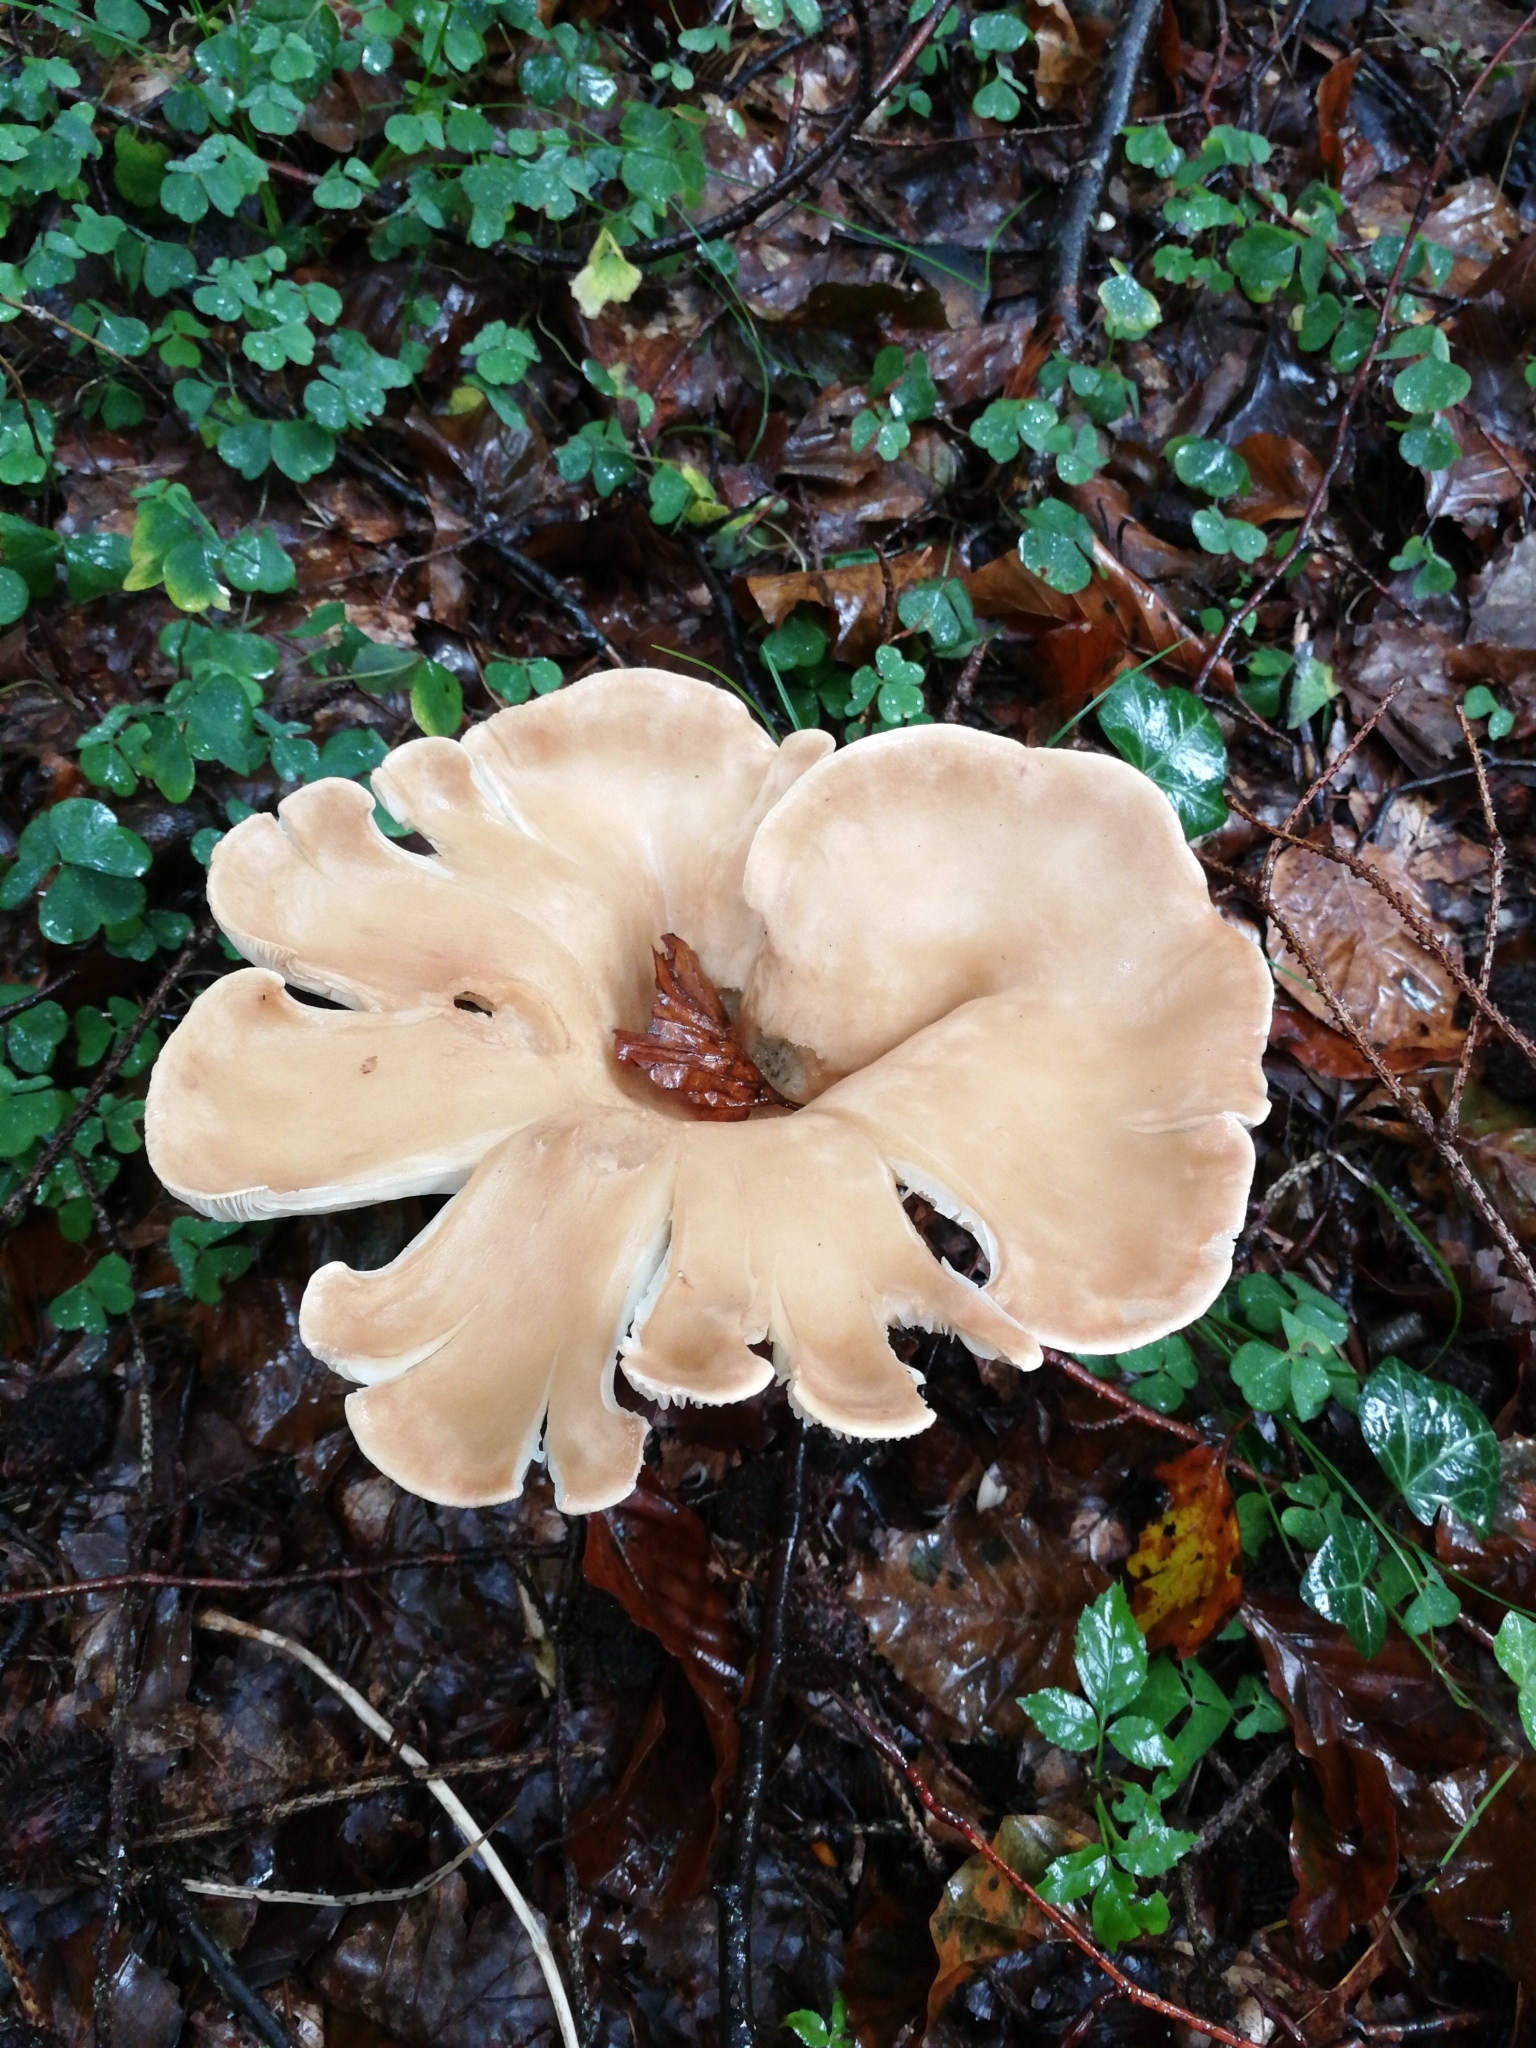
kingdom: Fungi
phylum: Basidiomycota
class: Agaricomycetes
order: Agaricales
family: Tricholomataceae
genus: Infundibulicybe
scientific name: Infundibulicybe gibba
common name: Common funnel
